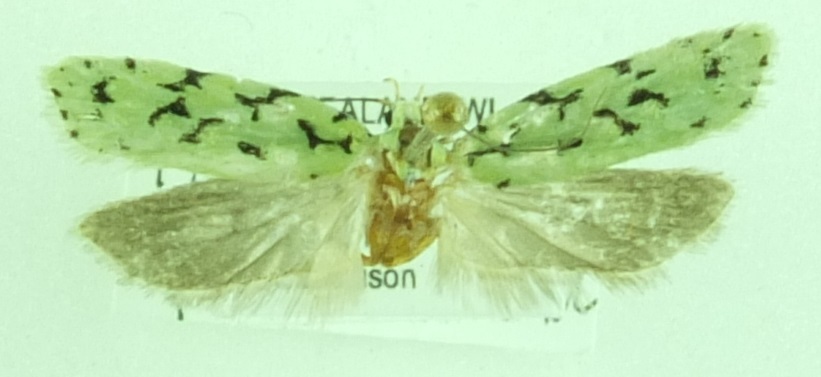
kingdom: Animalia
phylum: Arthropoda
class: Insecta
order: Lepidoptera
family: Oecophoridae
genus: Izatha
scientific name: Izatha peroneanella
